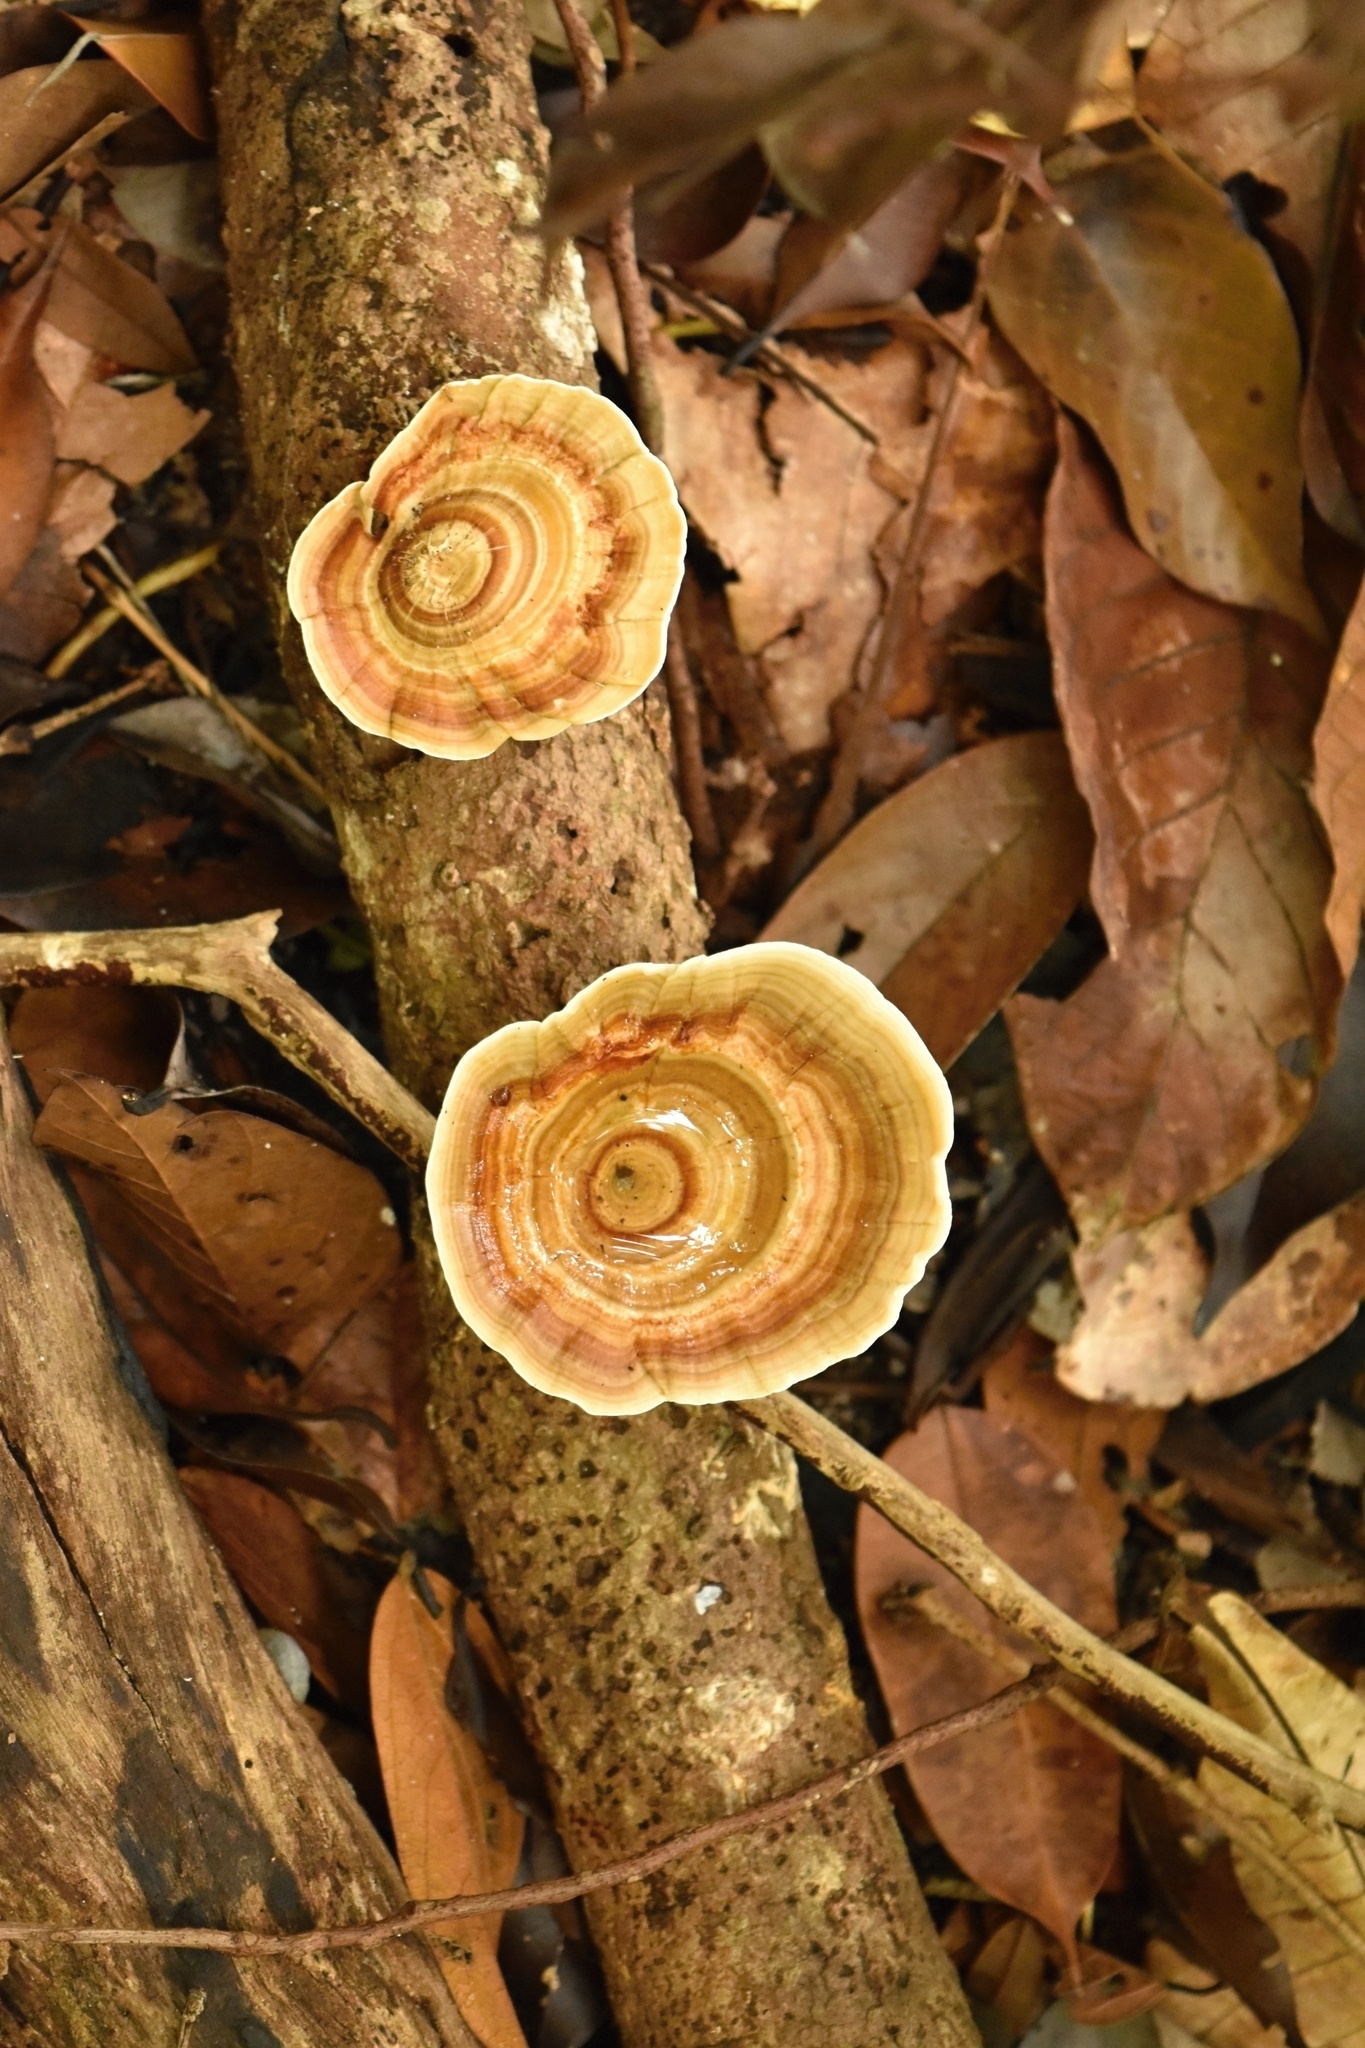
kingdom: Fungi
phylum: Basidiomycota
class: Agaricomycetes
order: Polyporales
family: Polyporaceae
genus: Microporus
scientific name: Microporus xanthopus
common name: Yellow-stemmed micropore
